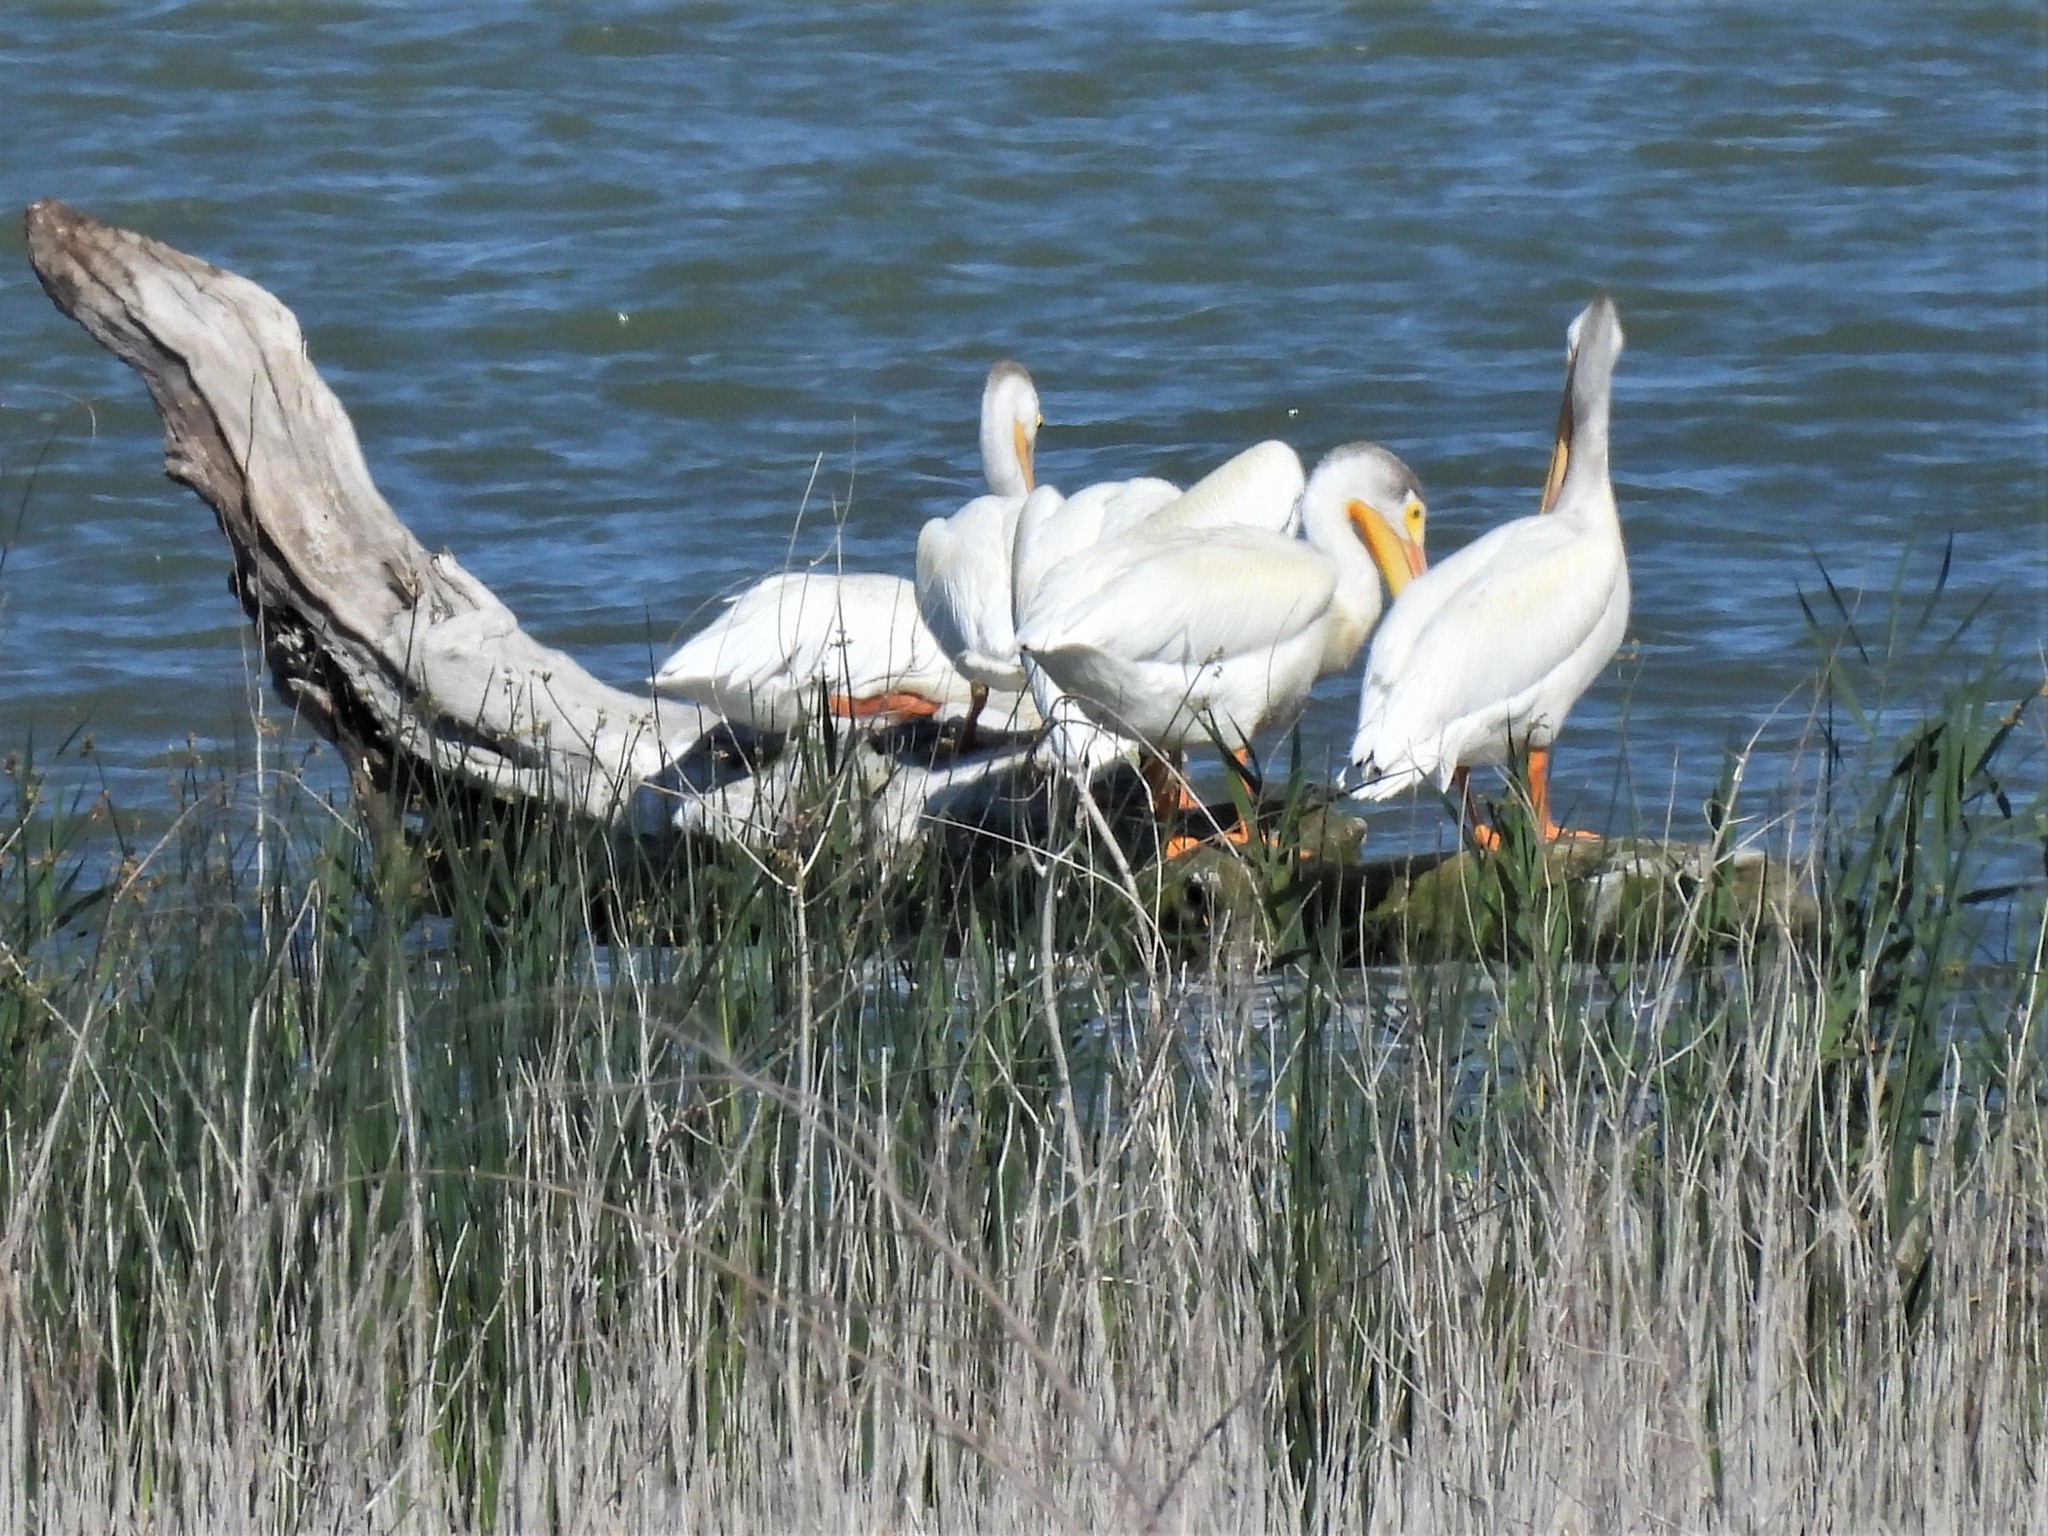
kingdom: Animalia
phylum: Chordata
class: Aves
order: Pelecaniformes
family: Pelecanidae
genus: Pelecanus
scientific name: Pelecanus erythrorhynchos
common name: American white pelican
